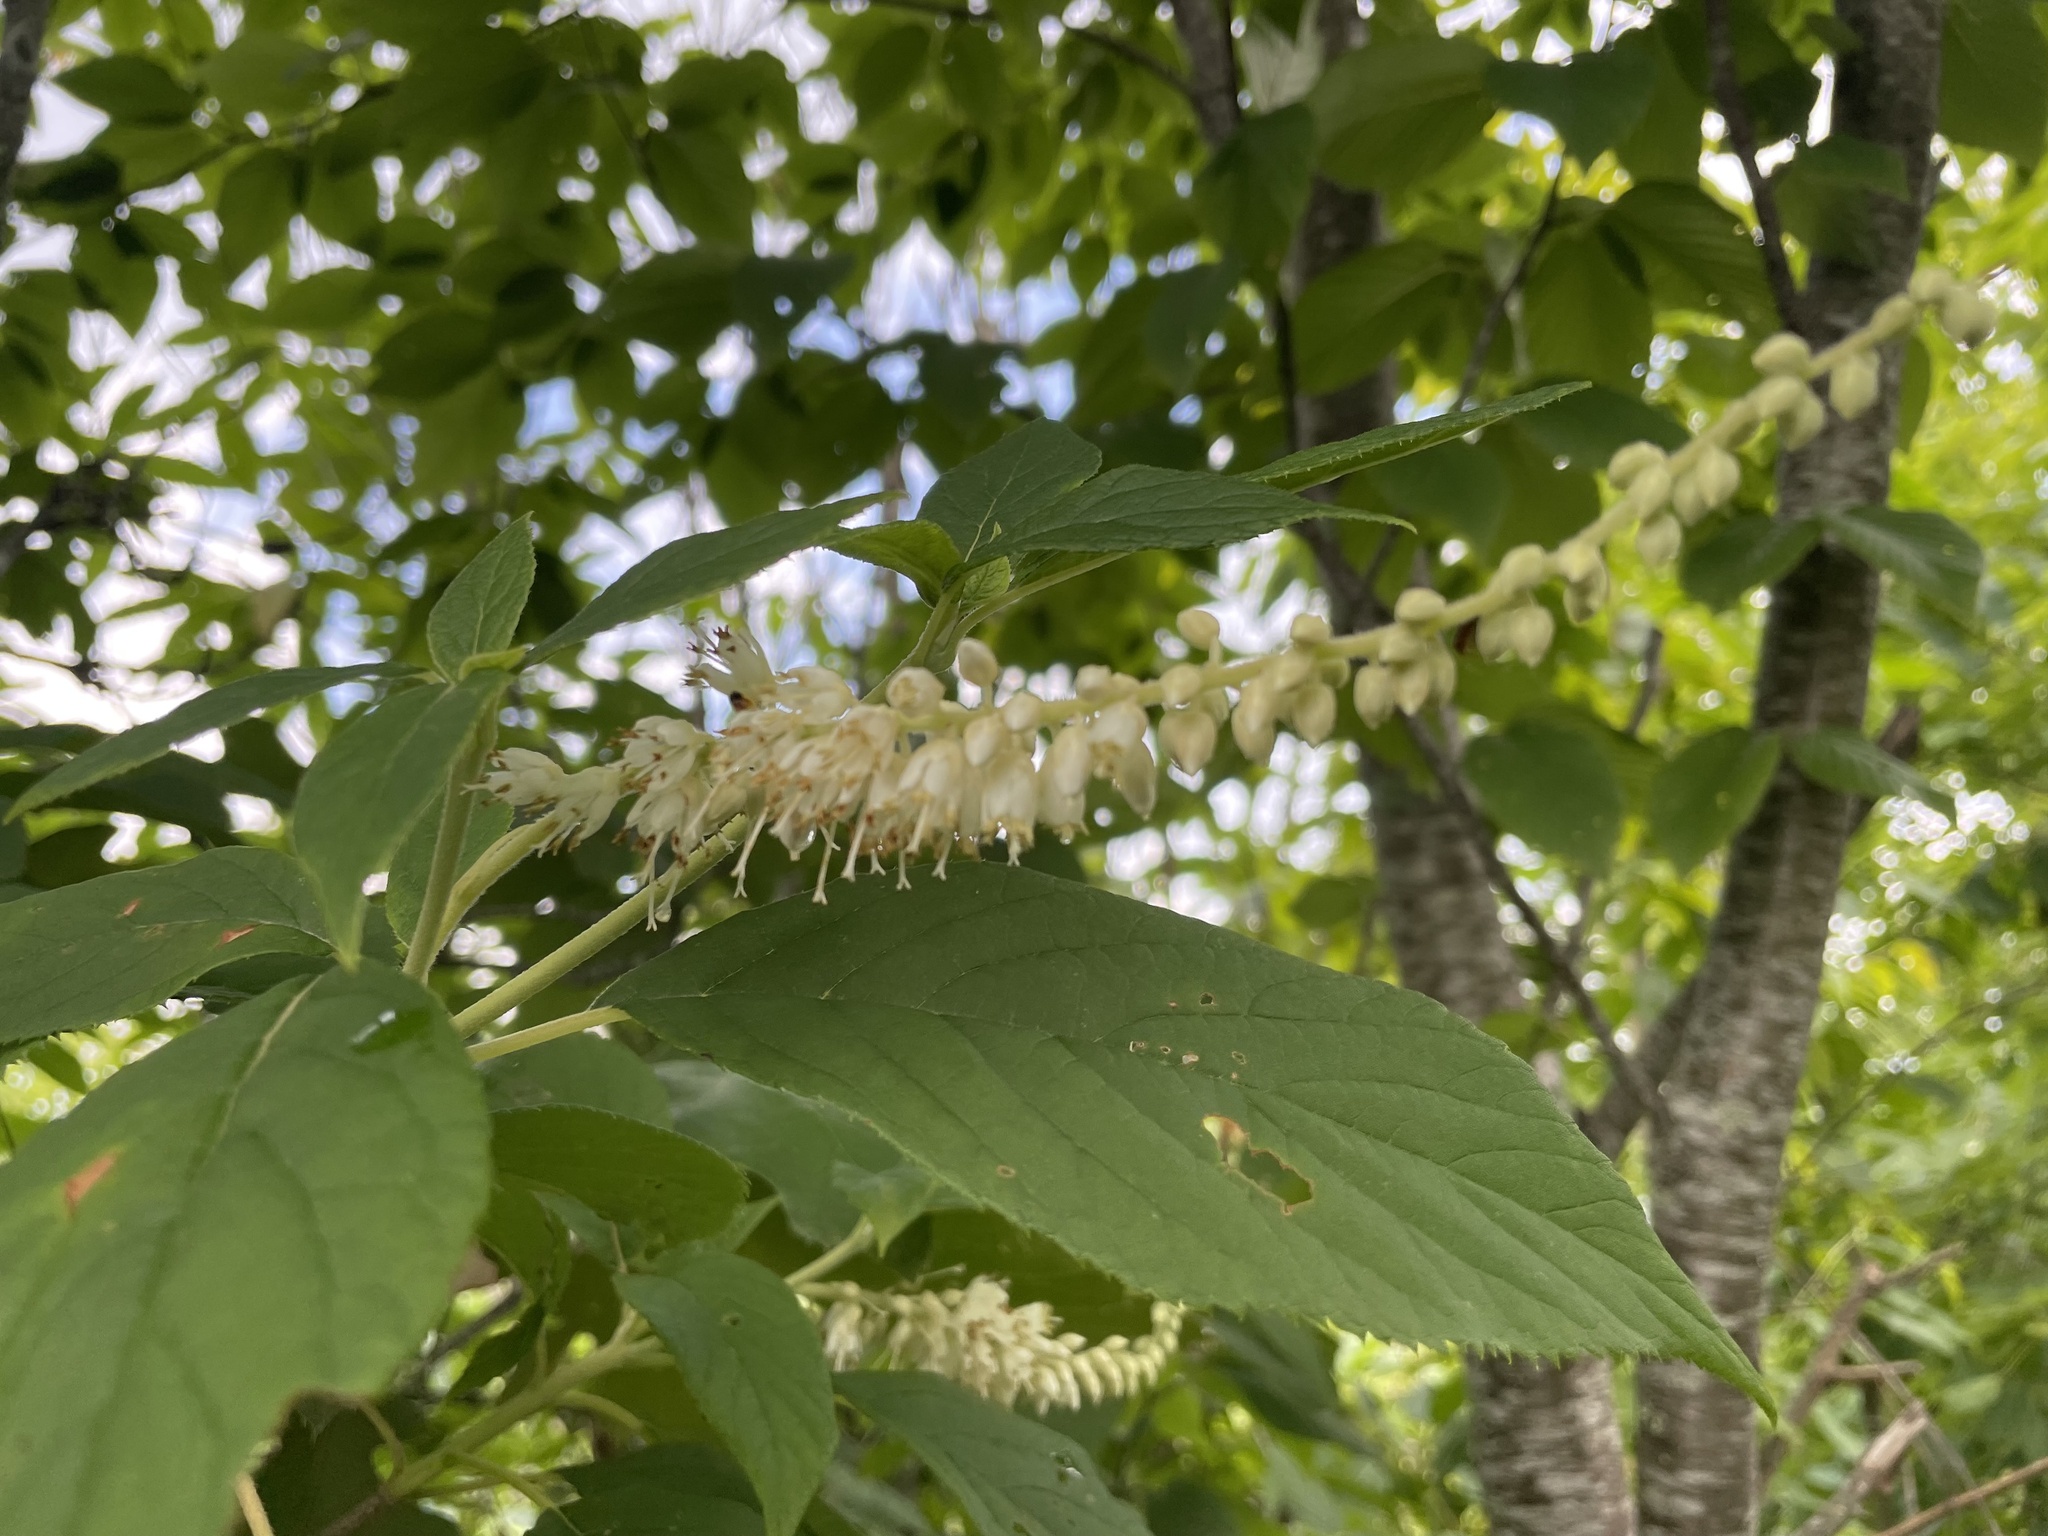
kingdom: Plantae
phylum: Tracheophyta
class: Magnoliopsida
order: Ericales
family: Clethraceae
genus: Clethra
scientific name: Clethra acuminata
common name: Mountain sweet pepperbush
